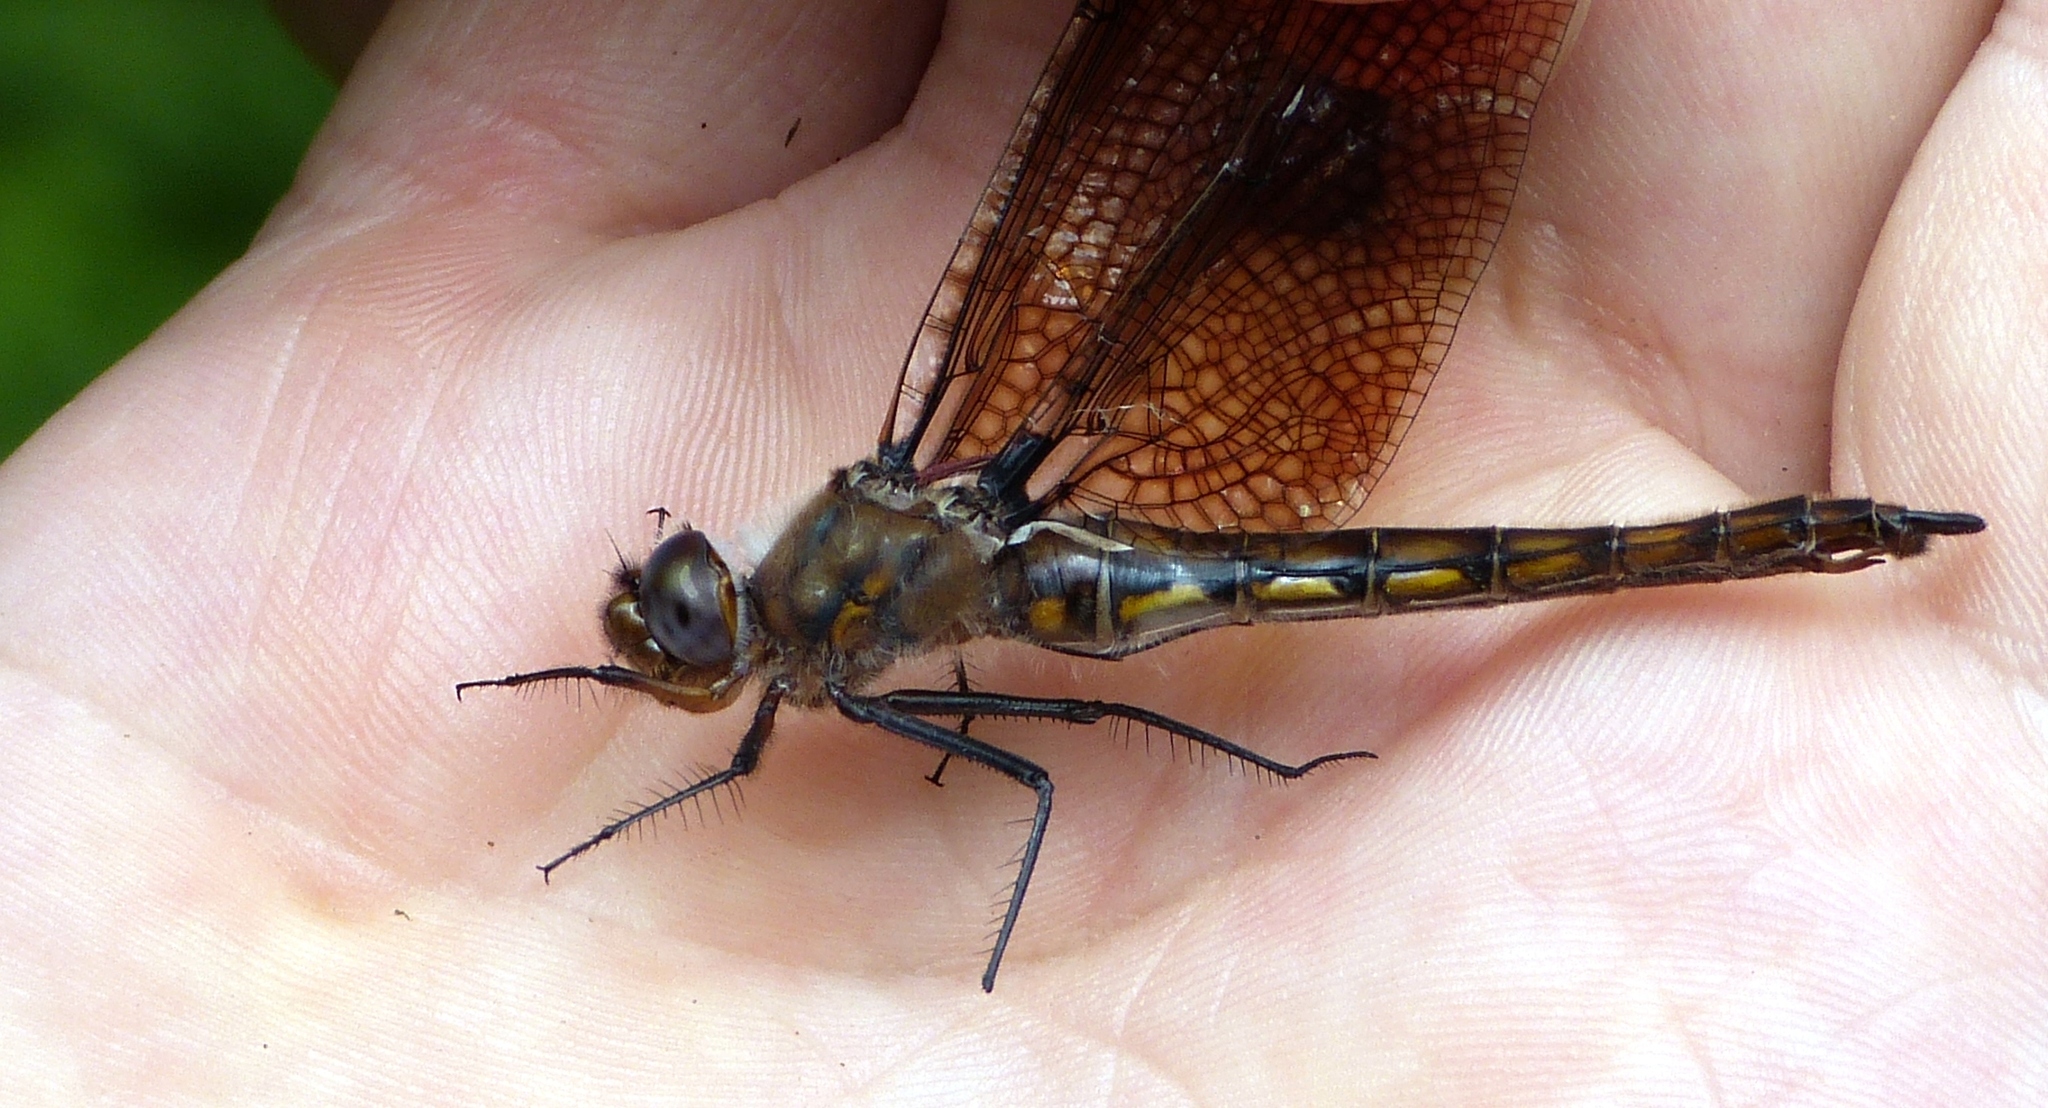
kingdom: Animalia
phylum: Arthropoda
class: Insecta
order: Odonata
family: Corduliidae
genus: Epitheca
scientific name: Epitheca canis
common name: Beaverpond baskettail
